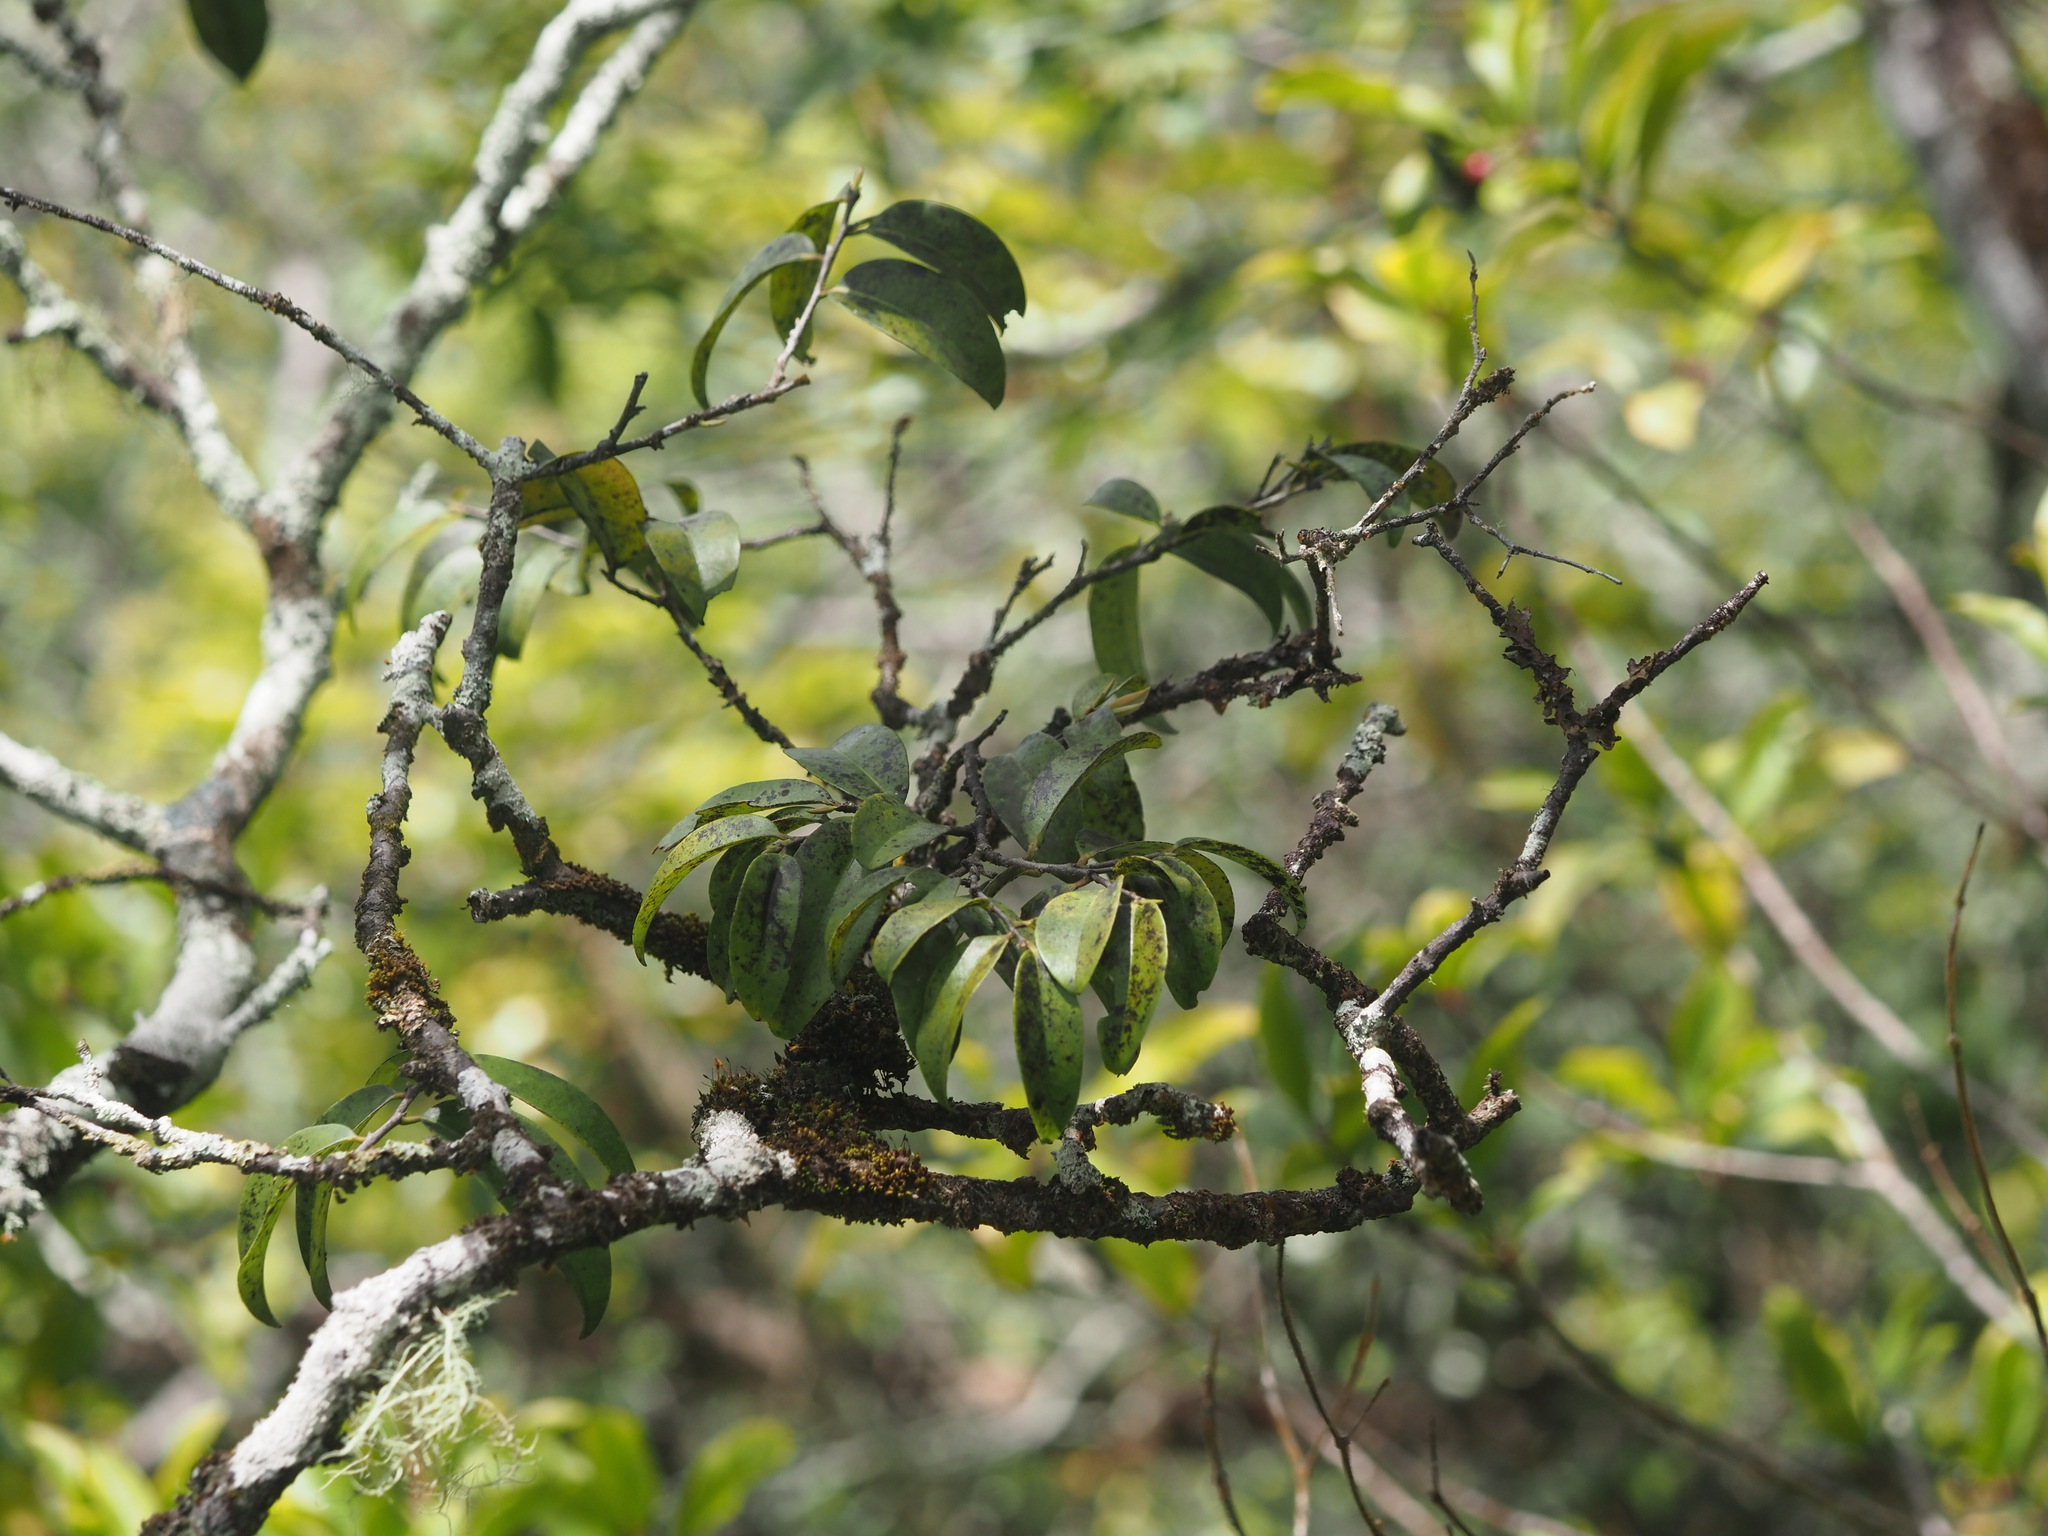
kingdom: Plantae
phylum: Tracheophyta
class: Magnoliopsida
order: Ericales
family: Ebenaceae
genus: Diospyros
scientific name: Diospyros sandwicensis
